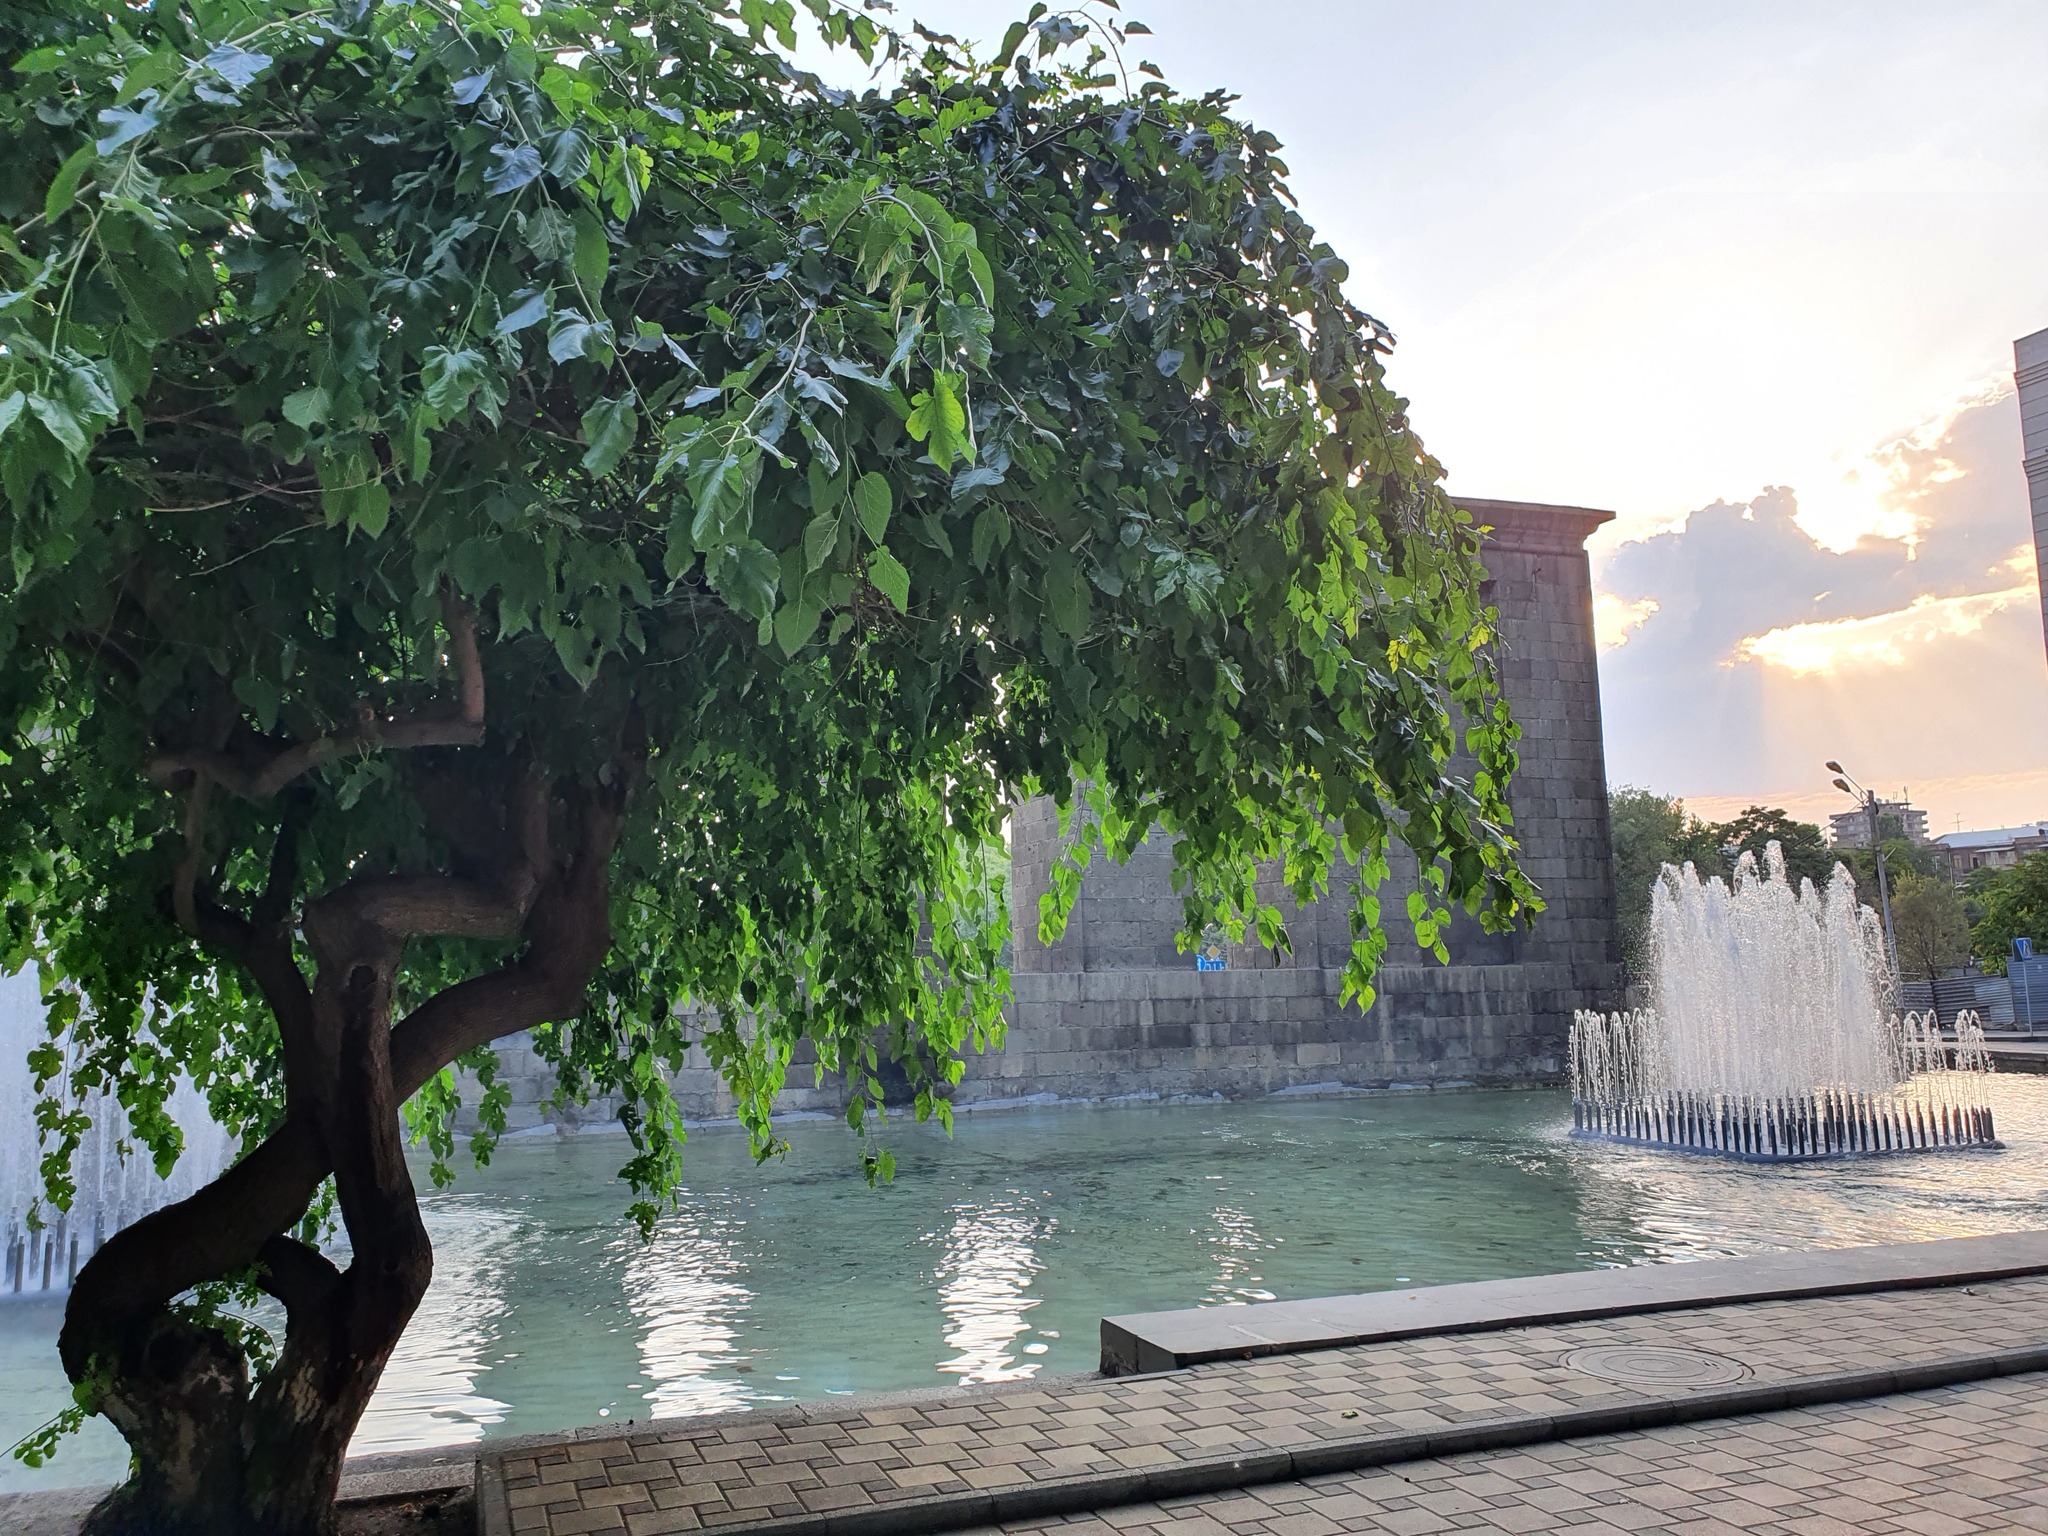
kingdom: Plantae
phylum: Tracheophyta
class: Magnoliopsida
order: Rosales
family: Moraceae
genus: Morus
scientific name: Morus alba
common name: White mulberry
